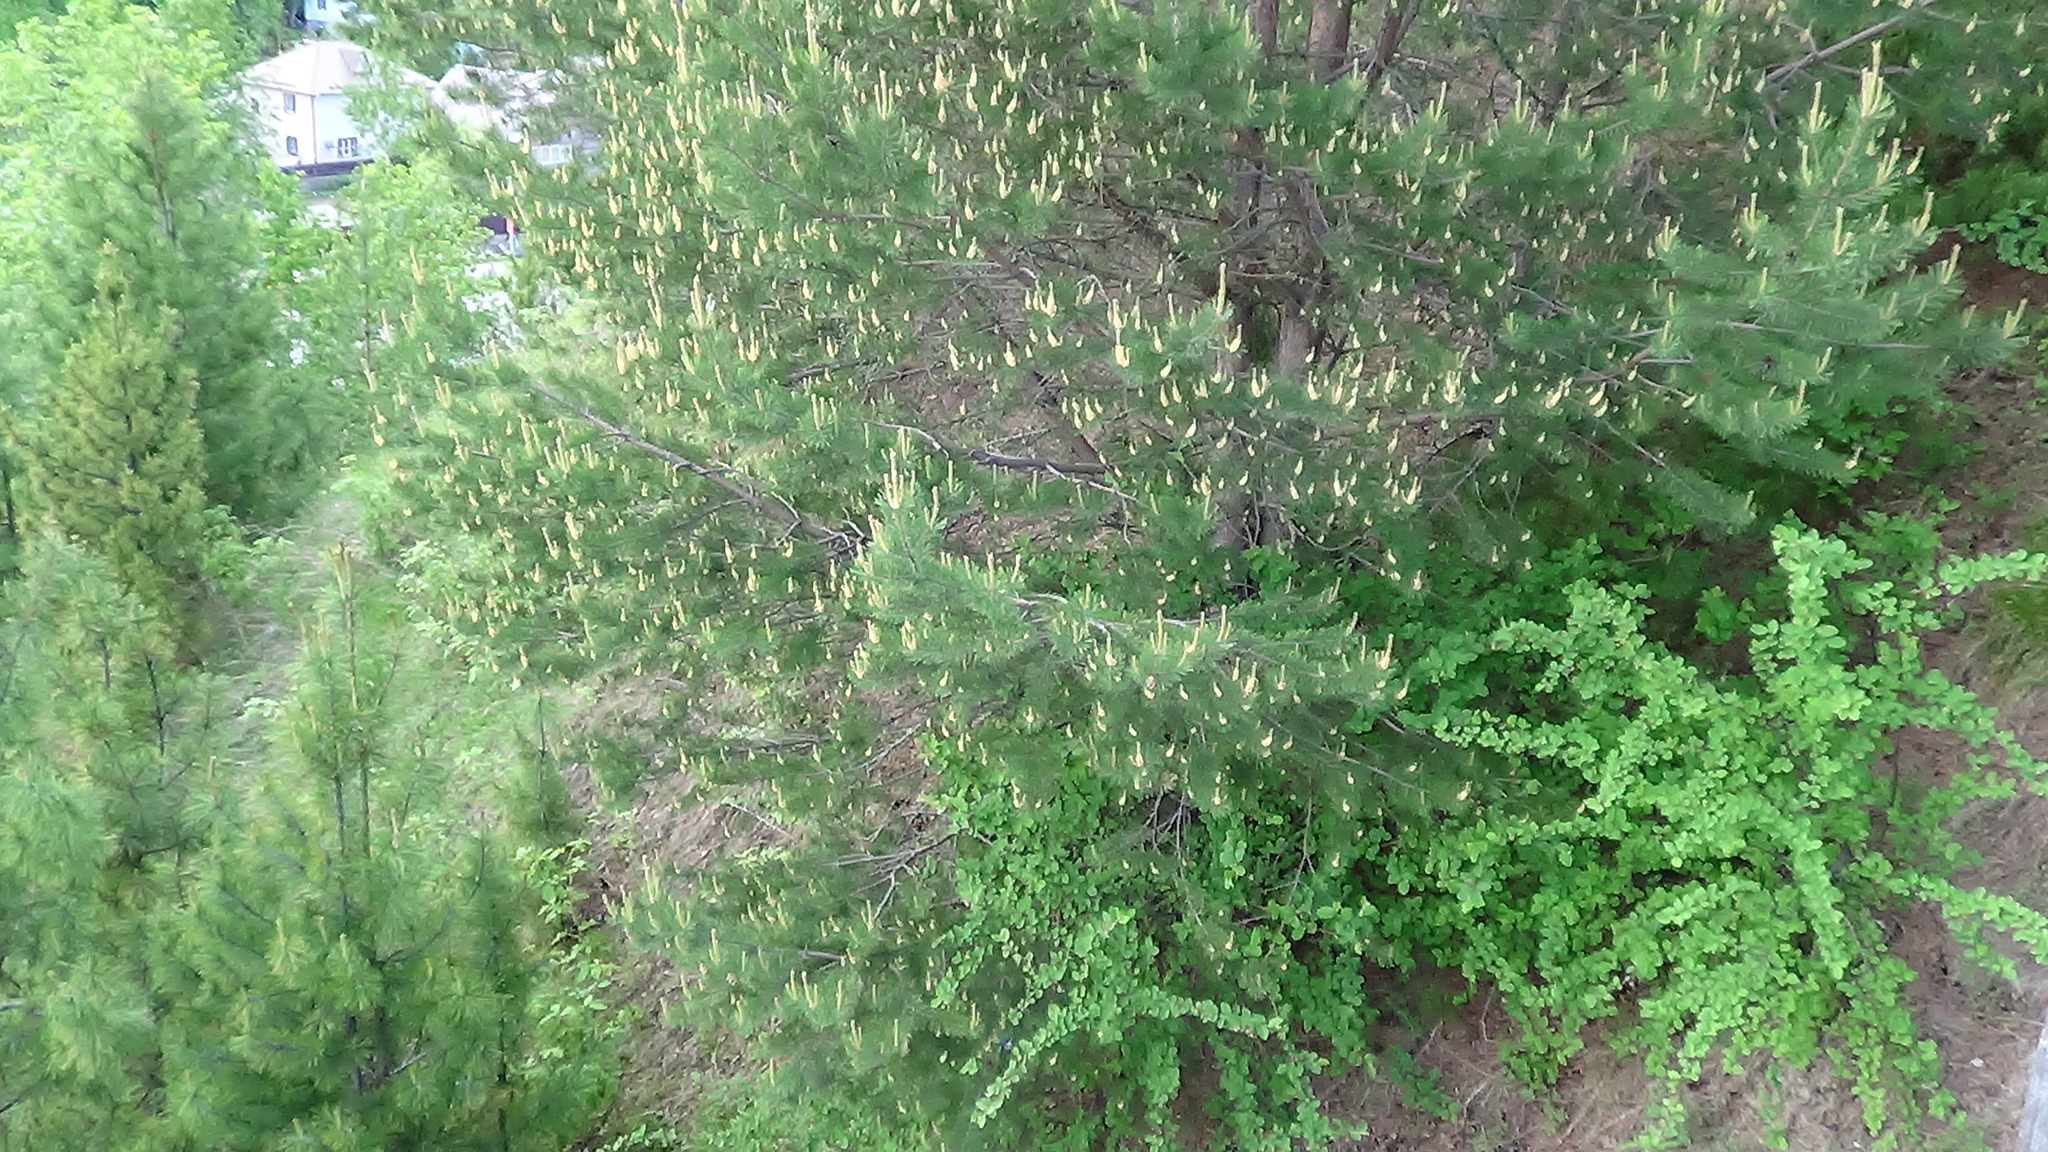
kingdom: Plantae
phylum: Tracheophyta
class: Pinopsida
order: Pinales
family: Pinaceae
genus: Pinus
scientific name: Pinus sylvestris
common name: Scots pine
